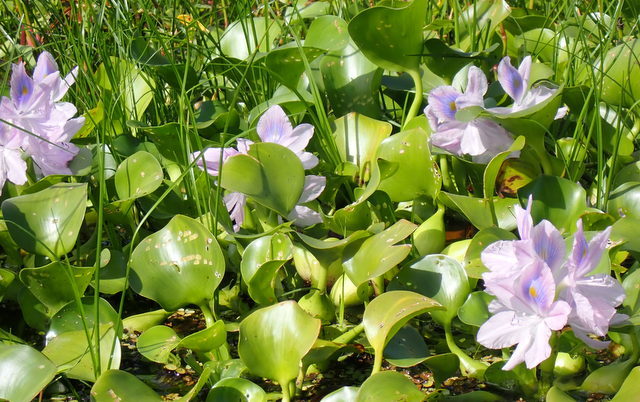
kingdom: Plantae
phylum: Tracheophyta
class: Liliopsida
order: Commelinales
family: Pontederiaceae
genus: Pontederia
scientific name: Pontederia crassipes
